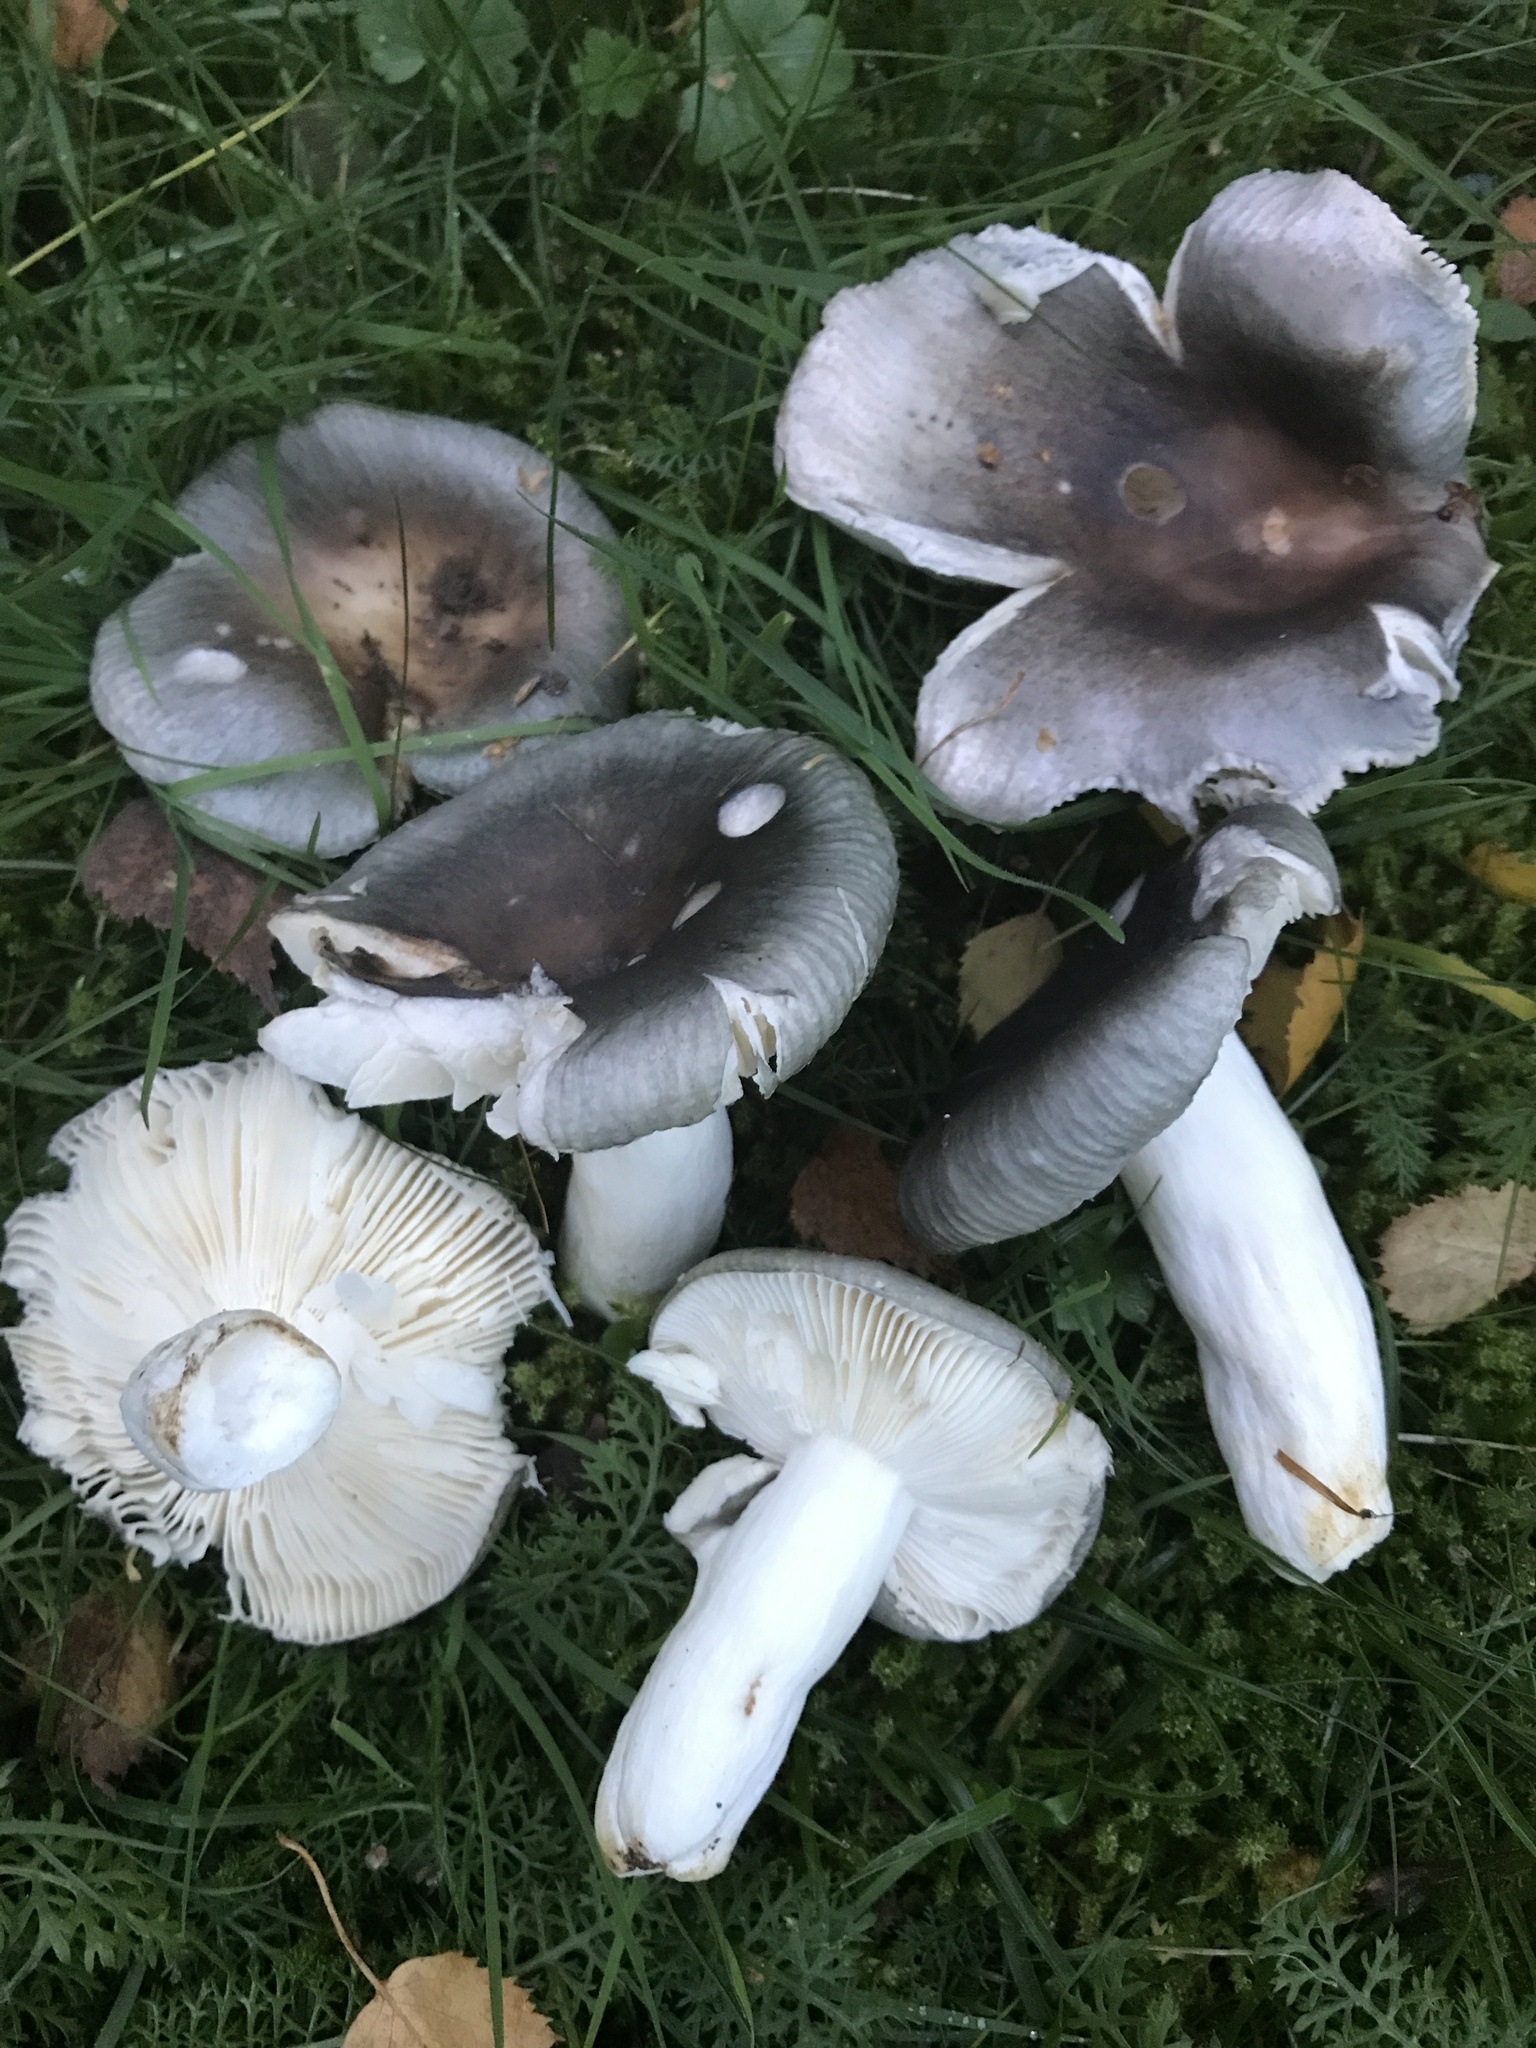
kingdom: Fungi
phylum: Basidiomycota
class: Agaricomycetes
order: Russulales
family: Russulaceae
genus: Russula
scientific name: Russula parazurea
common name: Powdery brittlegill
